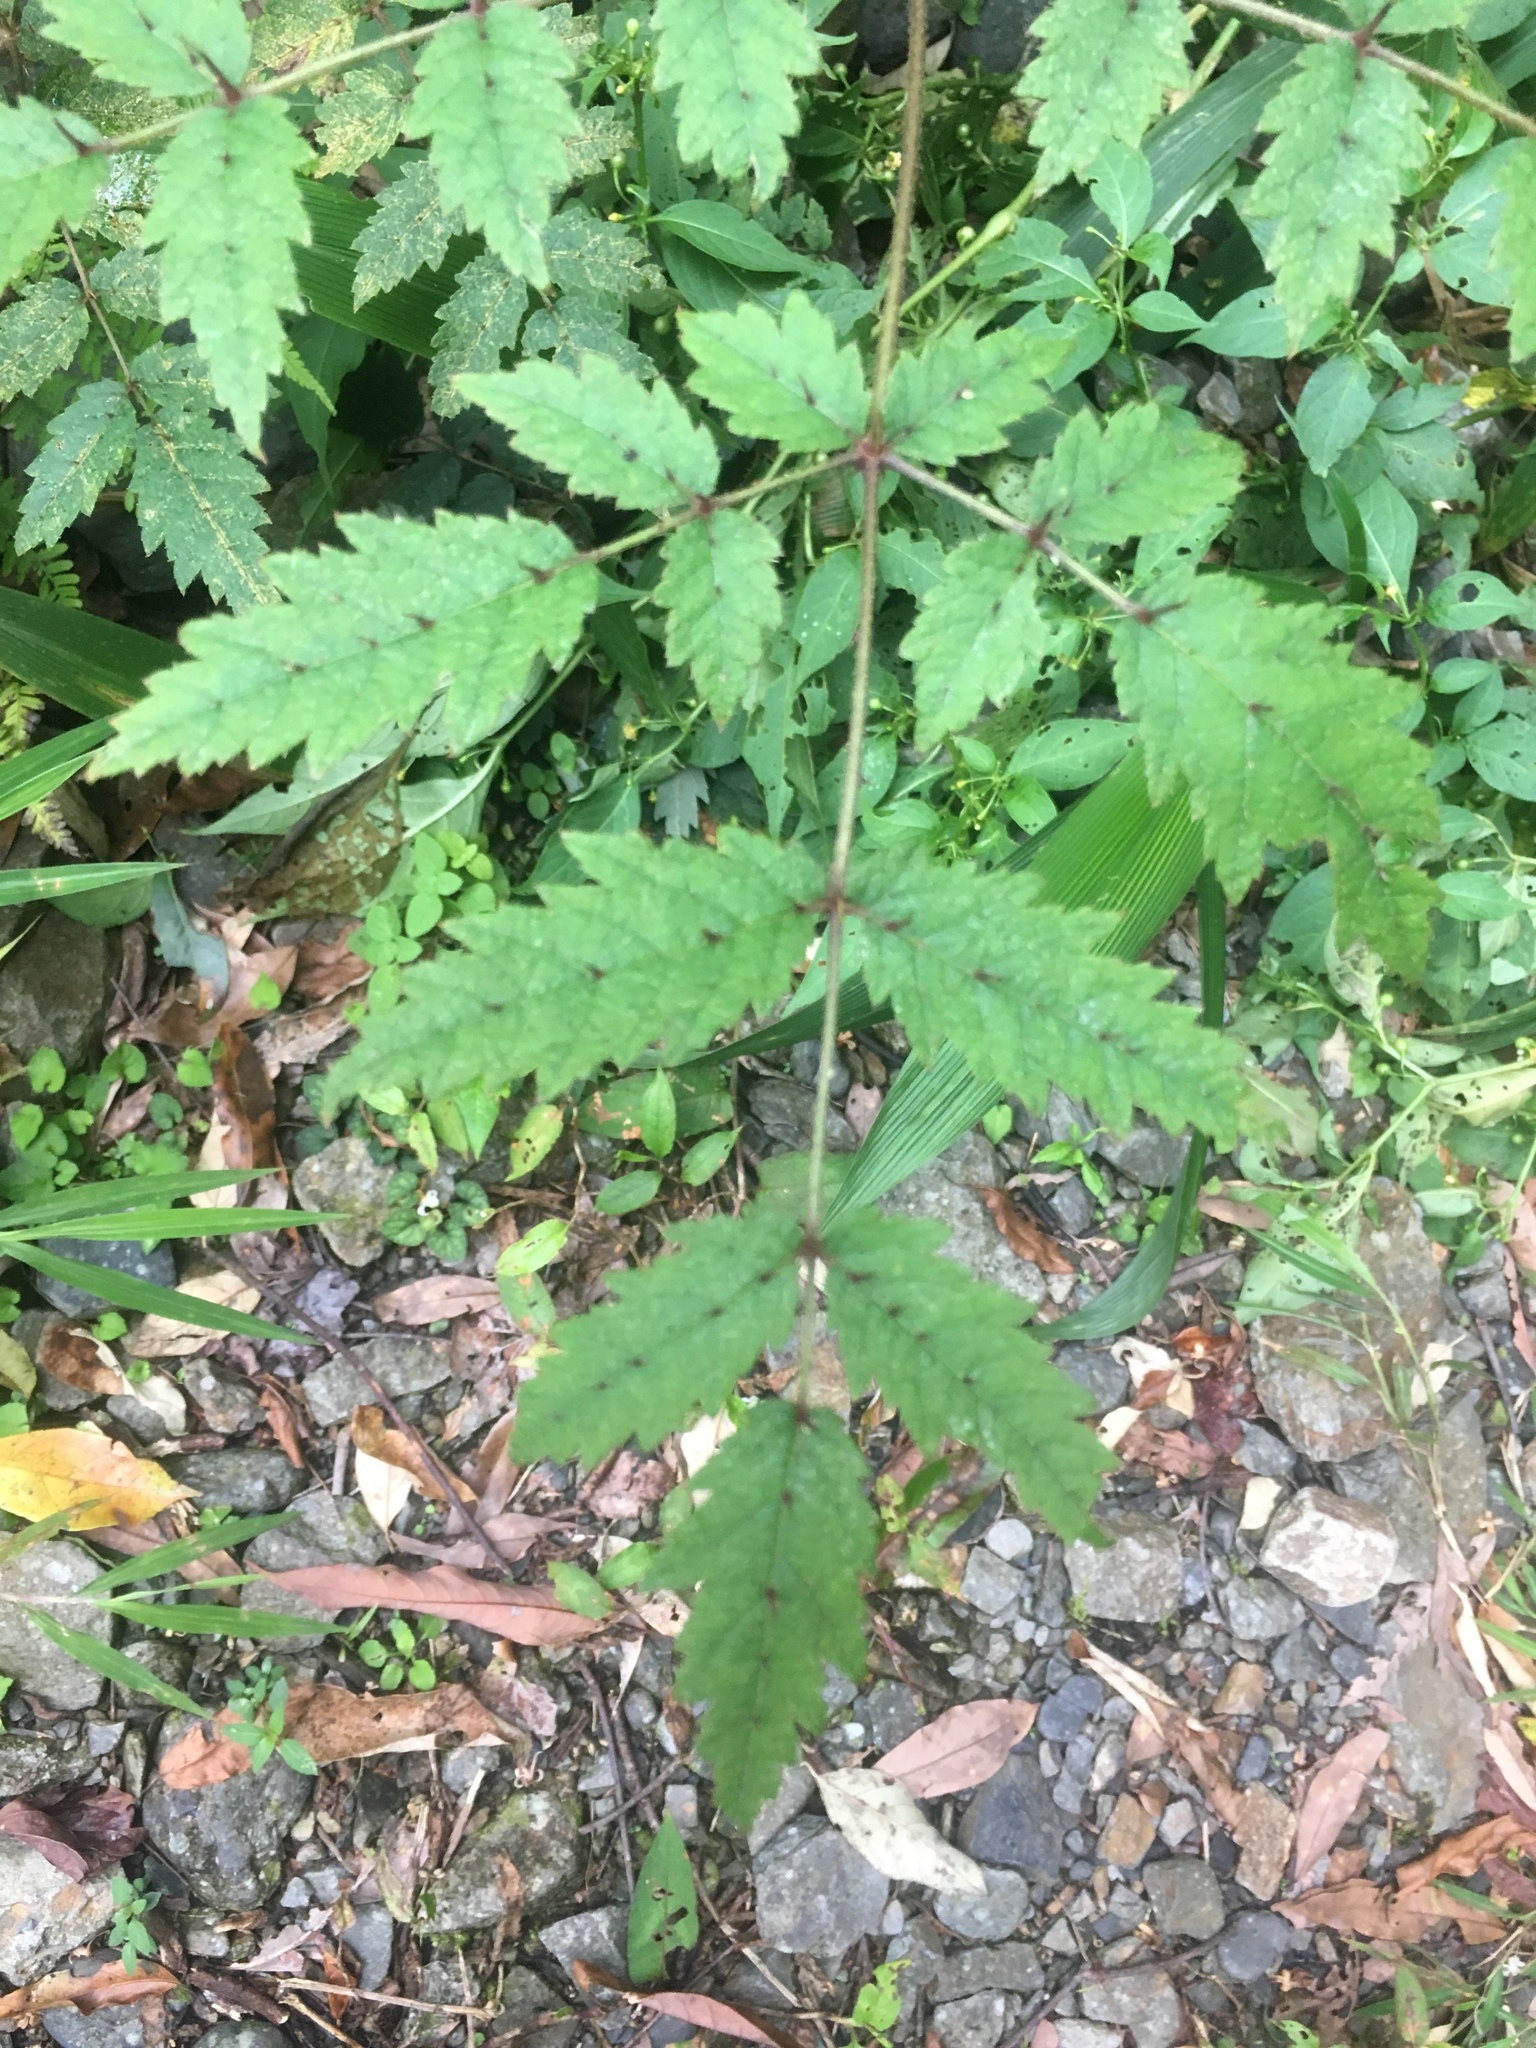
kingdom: Plantae
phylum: Tracheophyta
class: Magnoliopsida
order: Apiales
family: Araliaceae
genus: Aralia
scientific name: Aralia decaisneana
